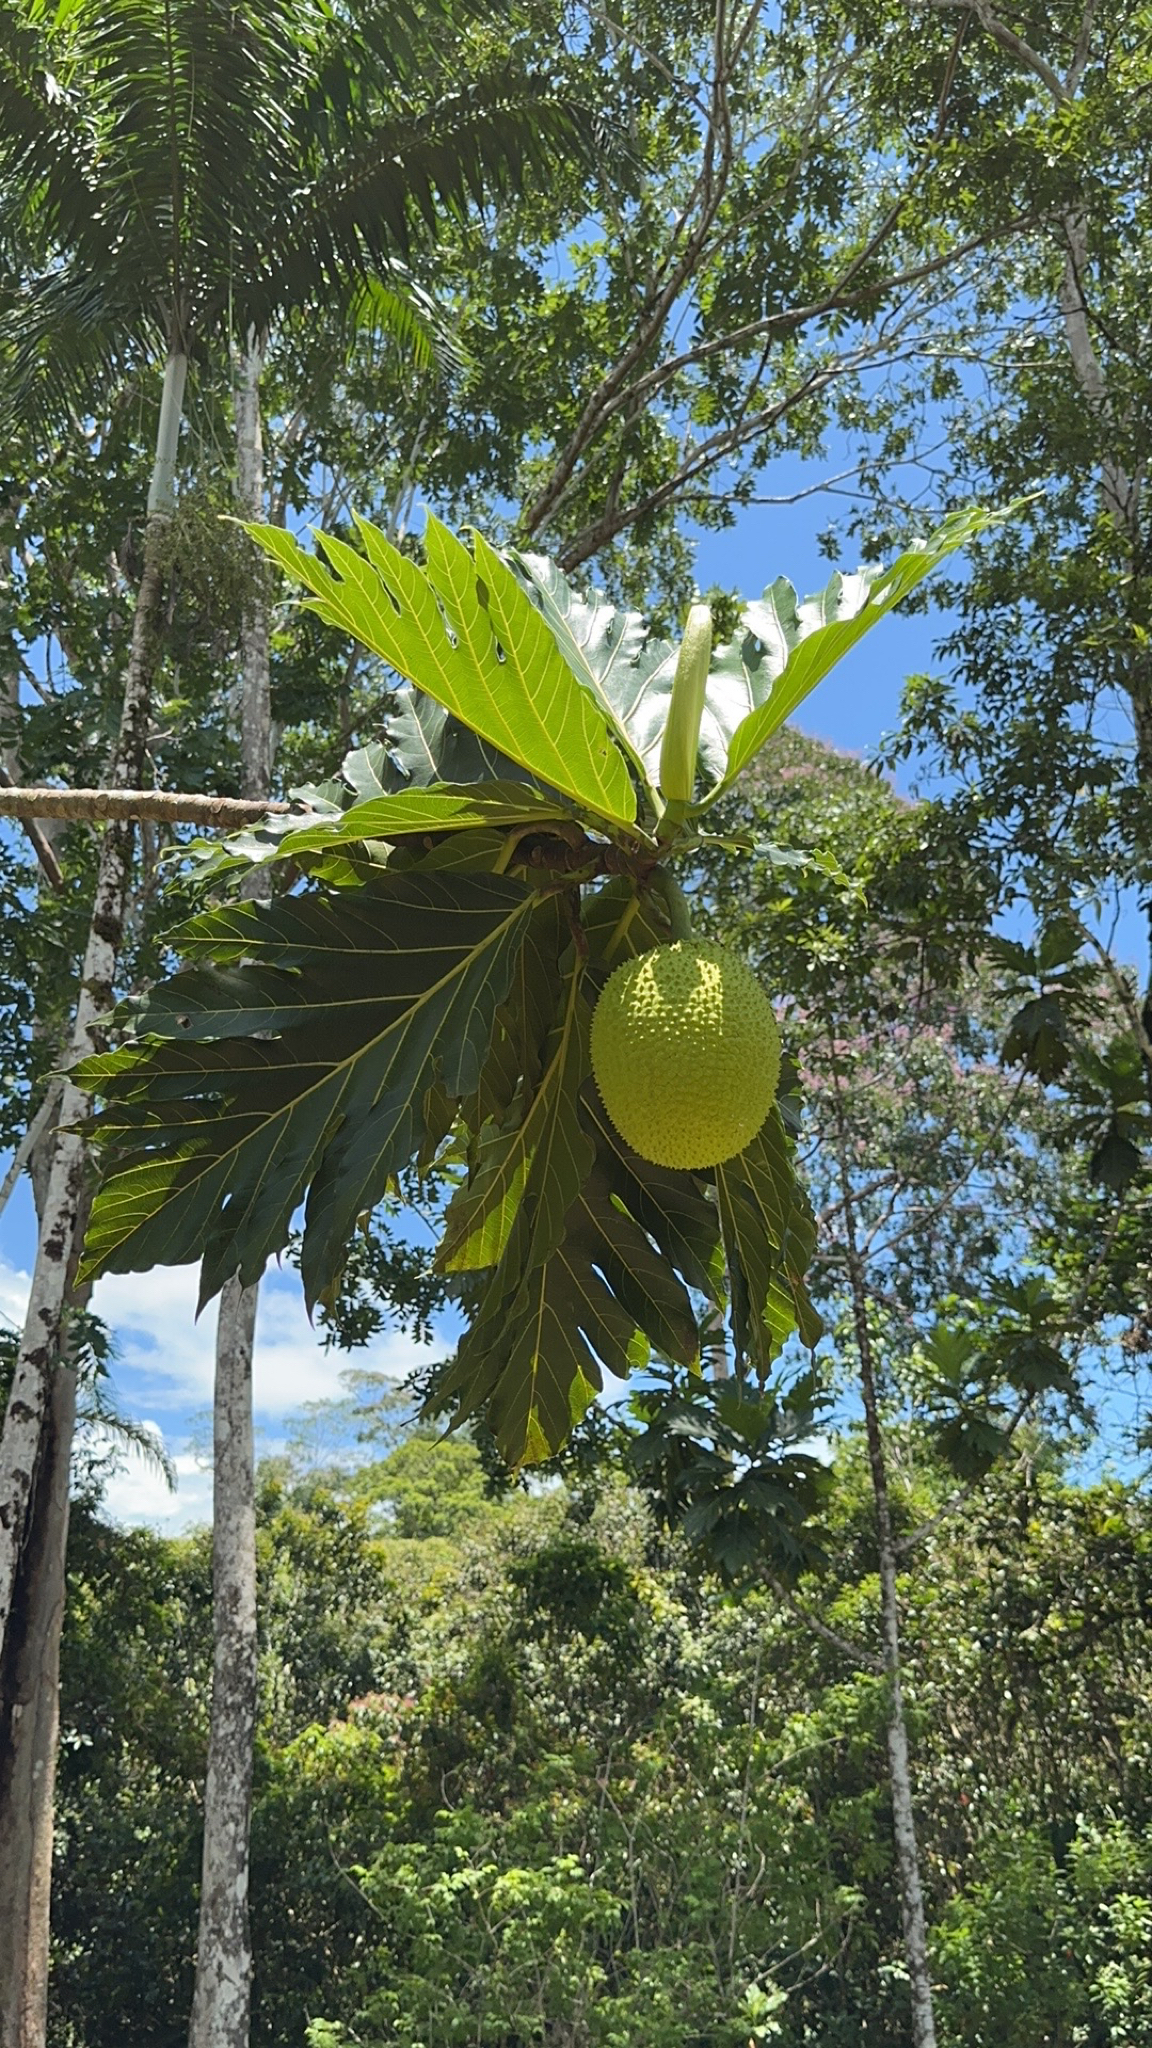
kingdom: Plantae
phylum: Tracheophyta
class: Magnoliopsida
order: Rosales
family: Moraceae
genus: Artocarpus
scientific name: Artocarpus altilis
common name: Breadfruit
